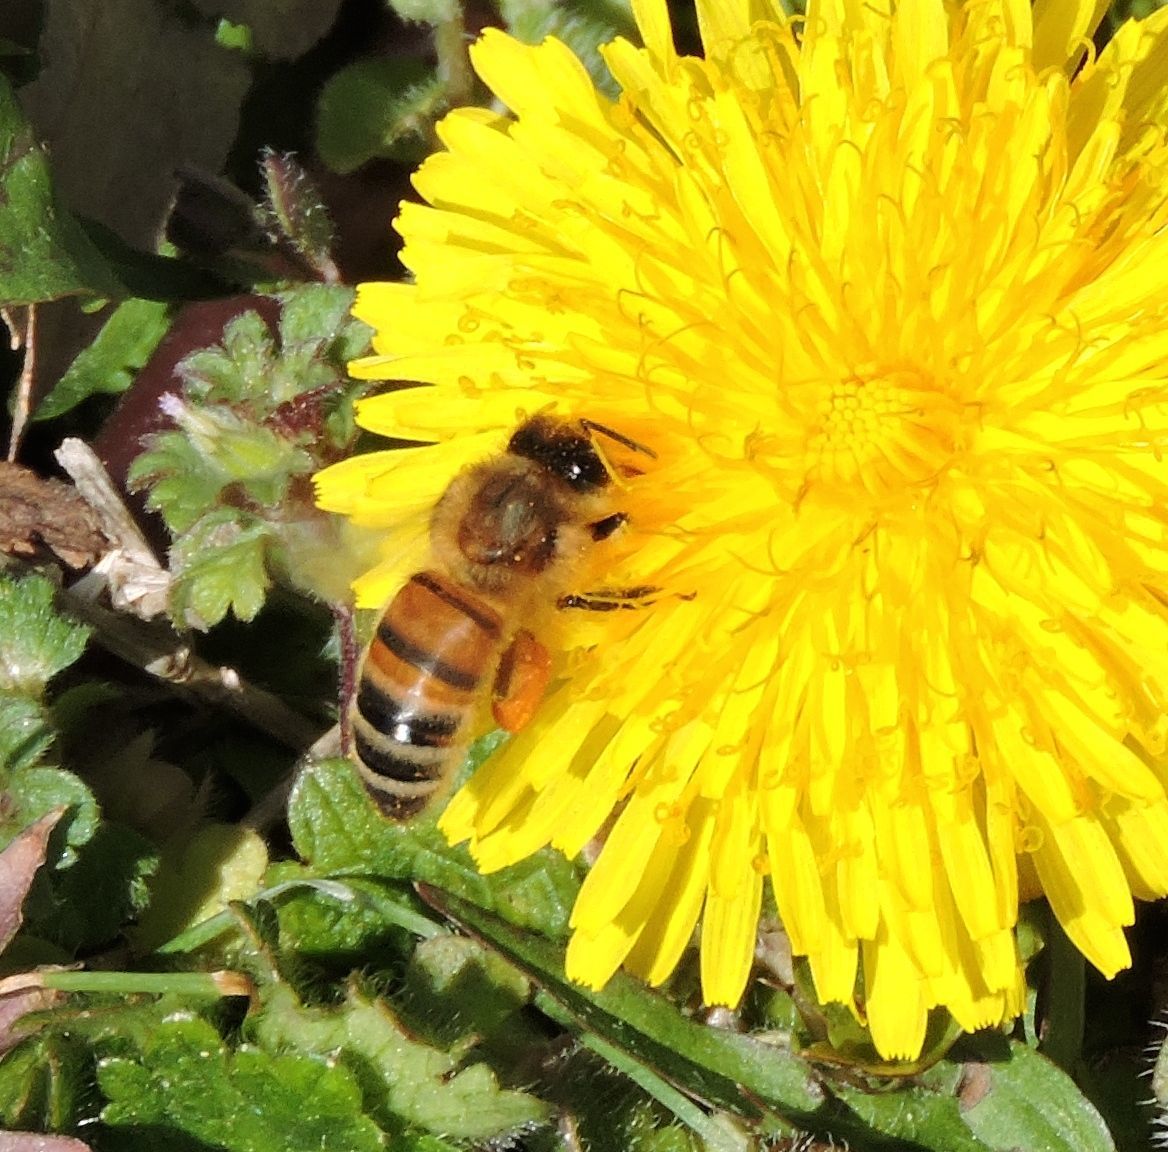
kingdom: Animalia
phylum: Arthropoda
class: Insecta
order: Hymenoptera
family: Apidae
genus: Apis
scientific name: Apis mellifera
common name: Honey bee
